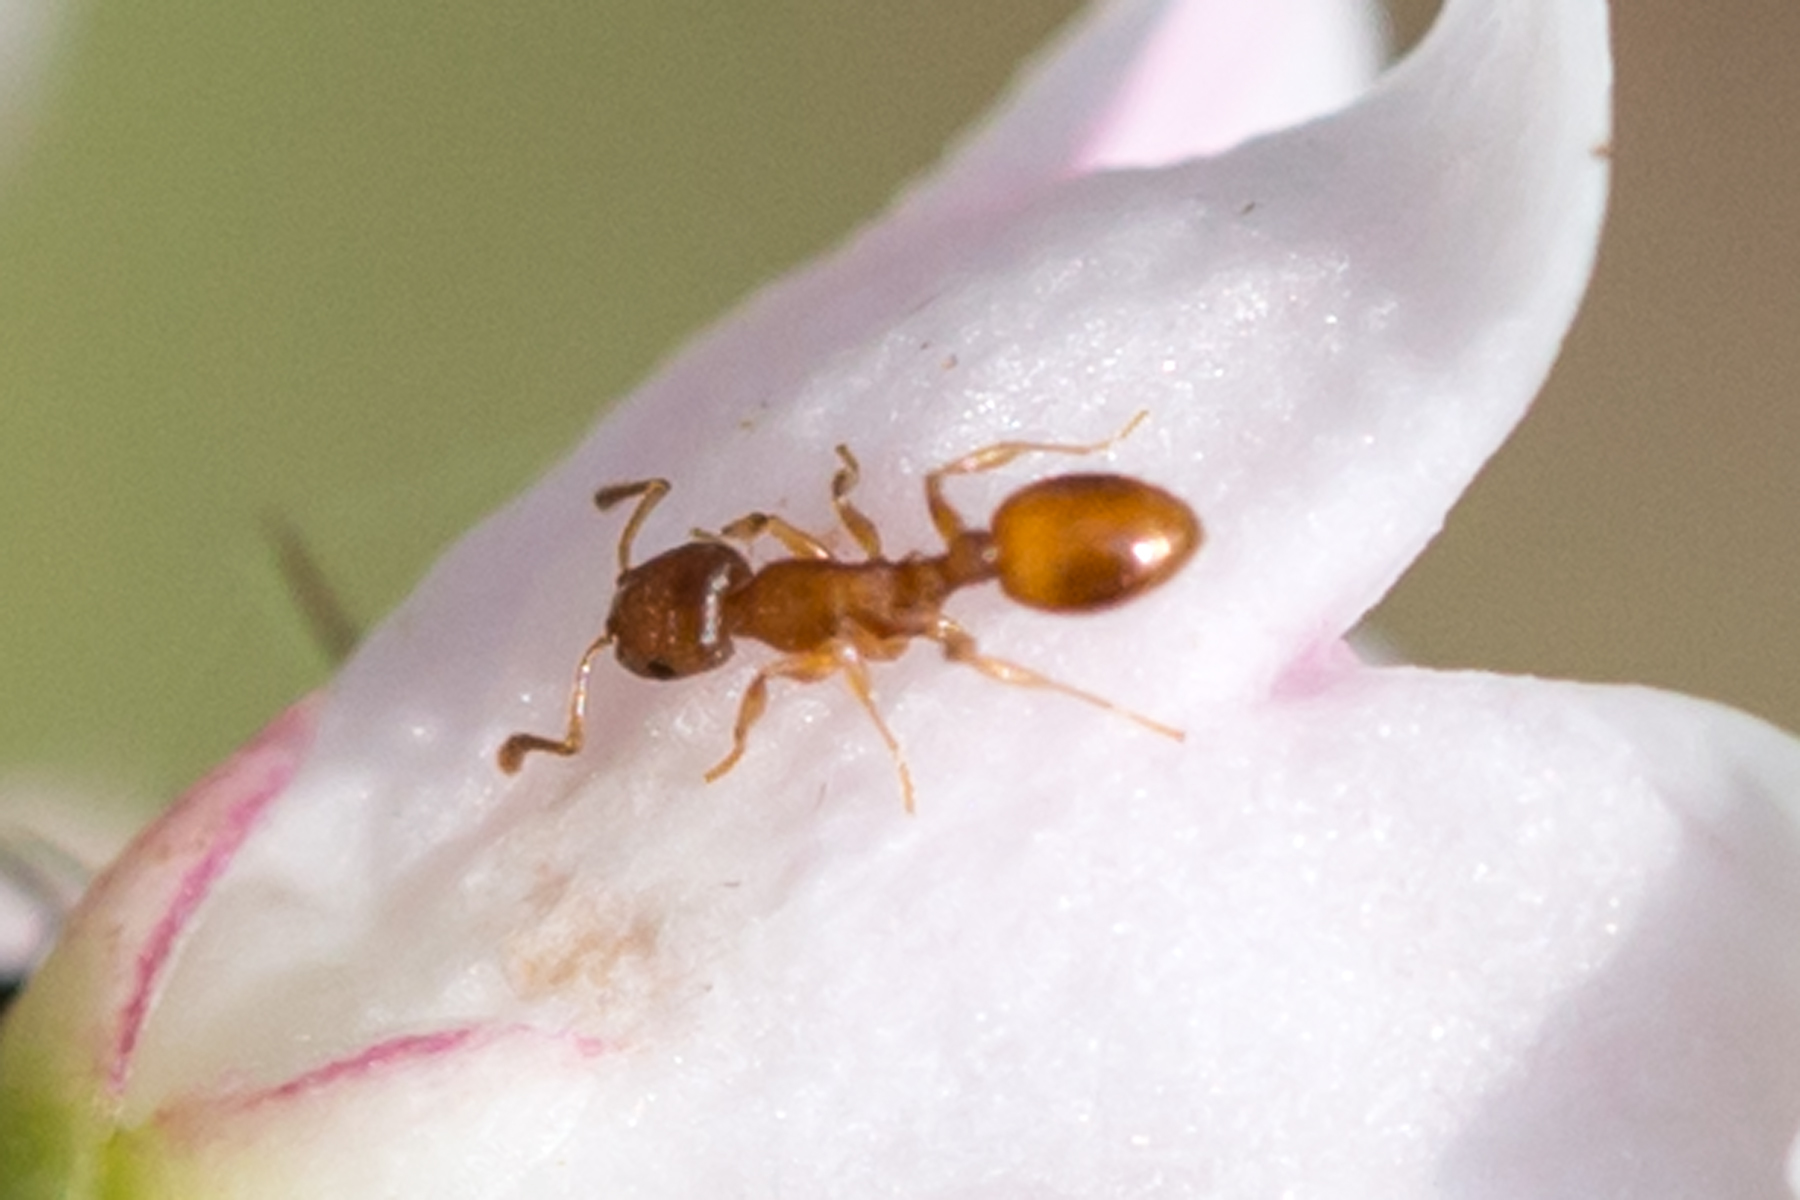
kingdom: Animalia
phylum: Arthropoda
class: Insecta
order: Hymenoptera
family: Formicidae
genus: Temnothorax
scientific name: Temnothorax ambiguus
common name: Doubtful acorn ant
